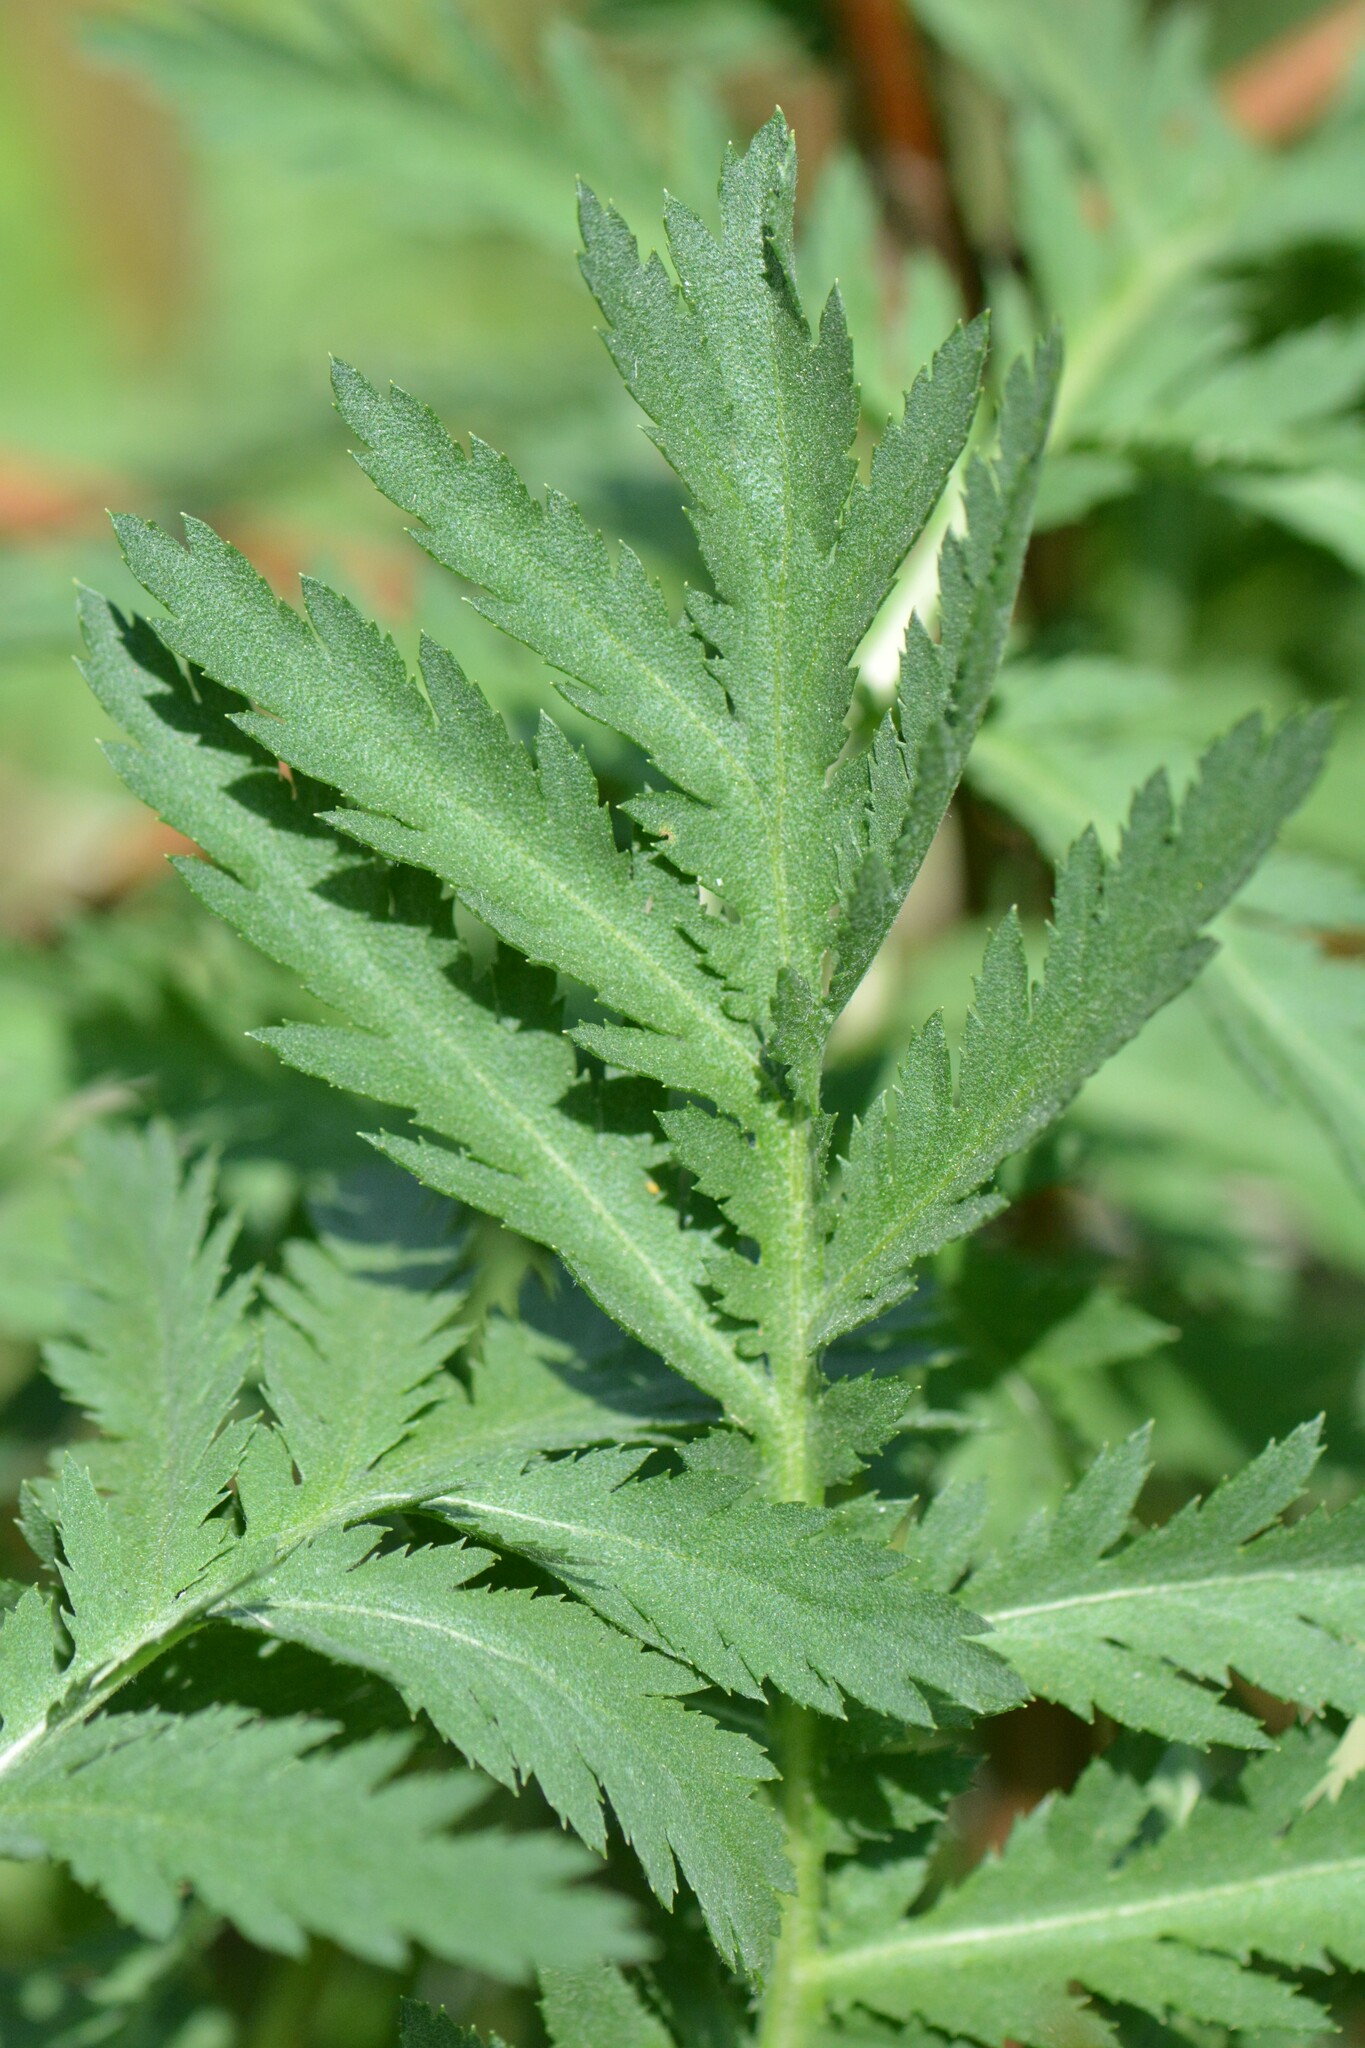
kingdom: Plantae
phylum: Tracheophyta
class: Magnoliopsida
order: Asterales
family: Asteraceae
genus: Tanacetum
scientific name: Tanacetum vulgare
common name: Common tansy
